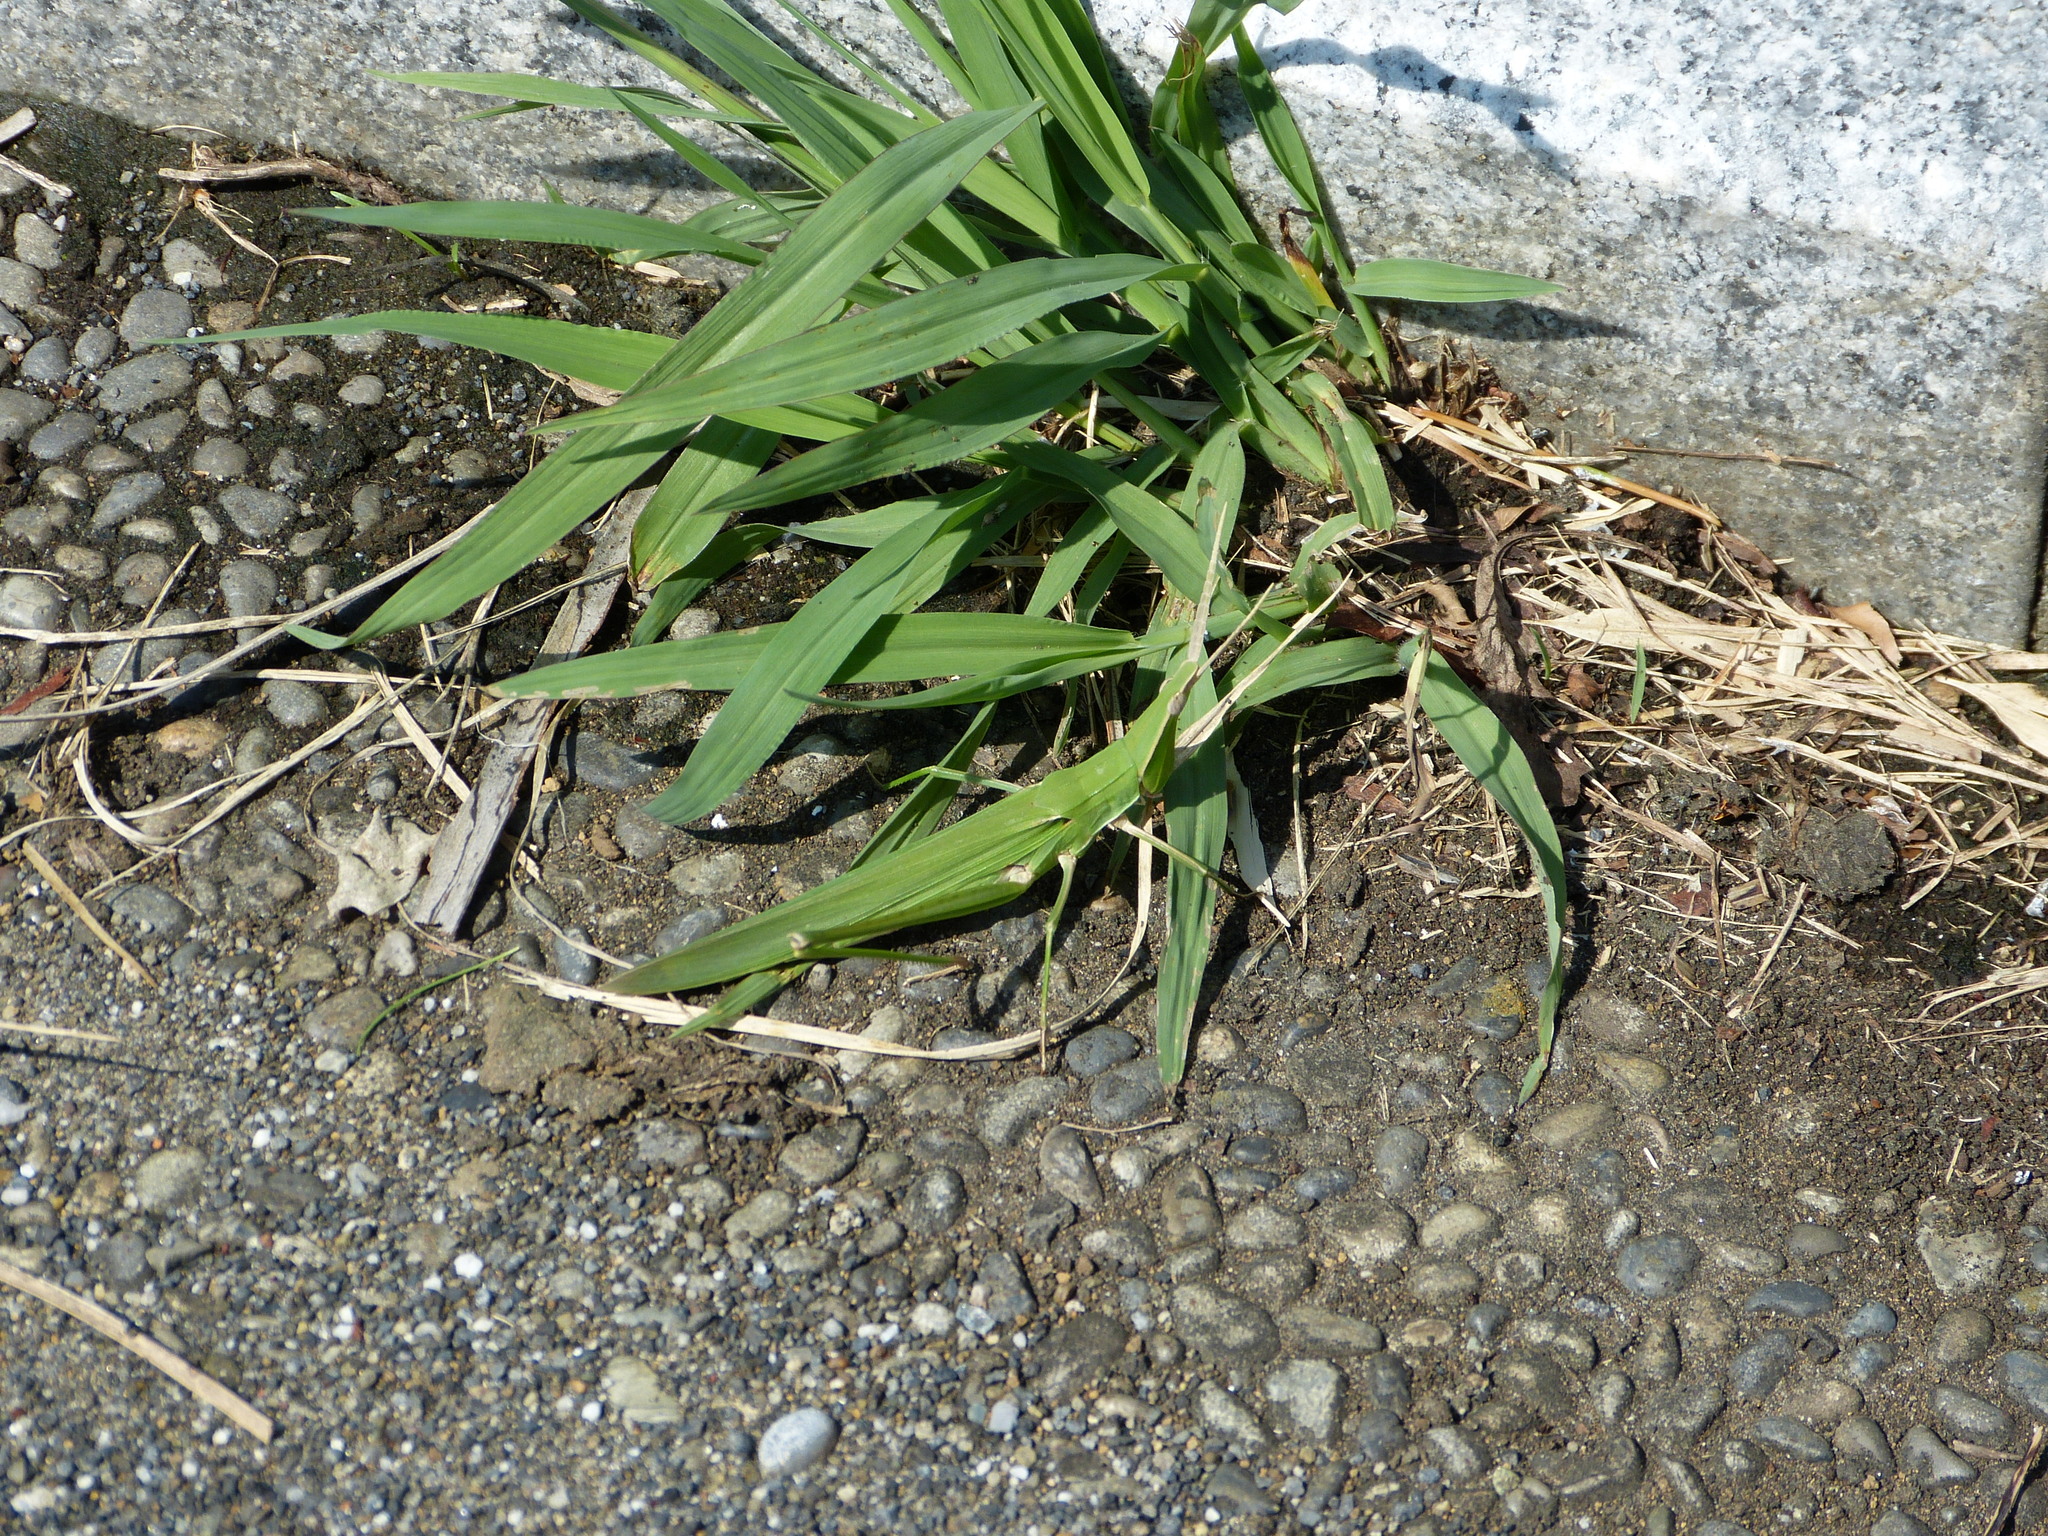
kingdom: Animalia
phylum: Arthropoda
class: Insecta
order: Orthoptera
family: Acrididae
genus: Acrida
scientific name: Acrida cinerea
